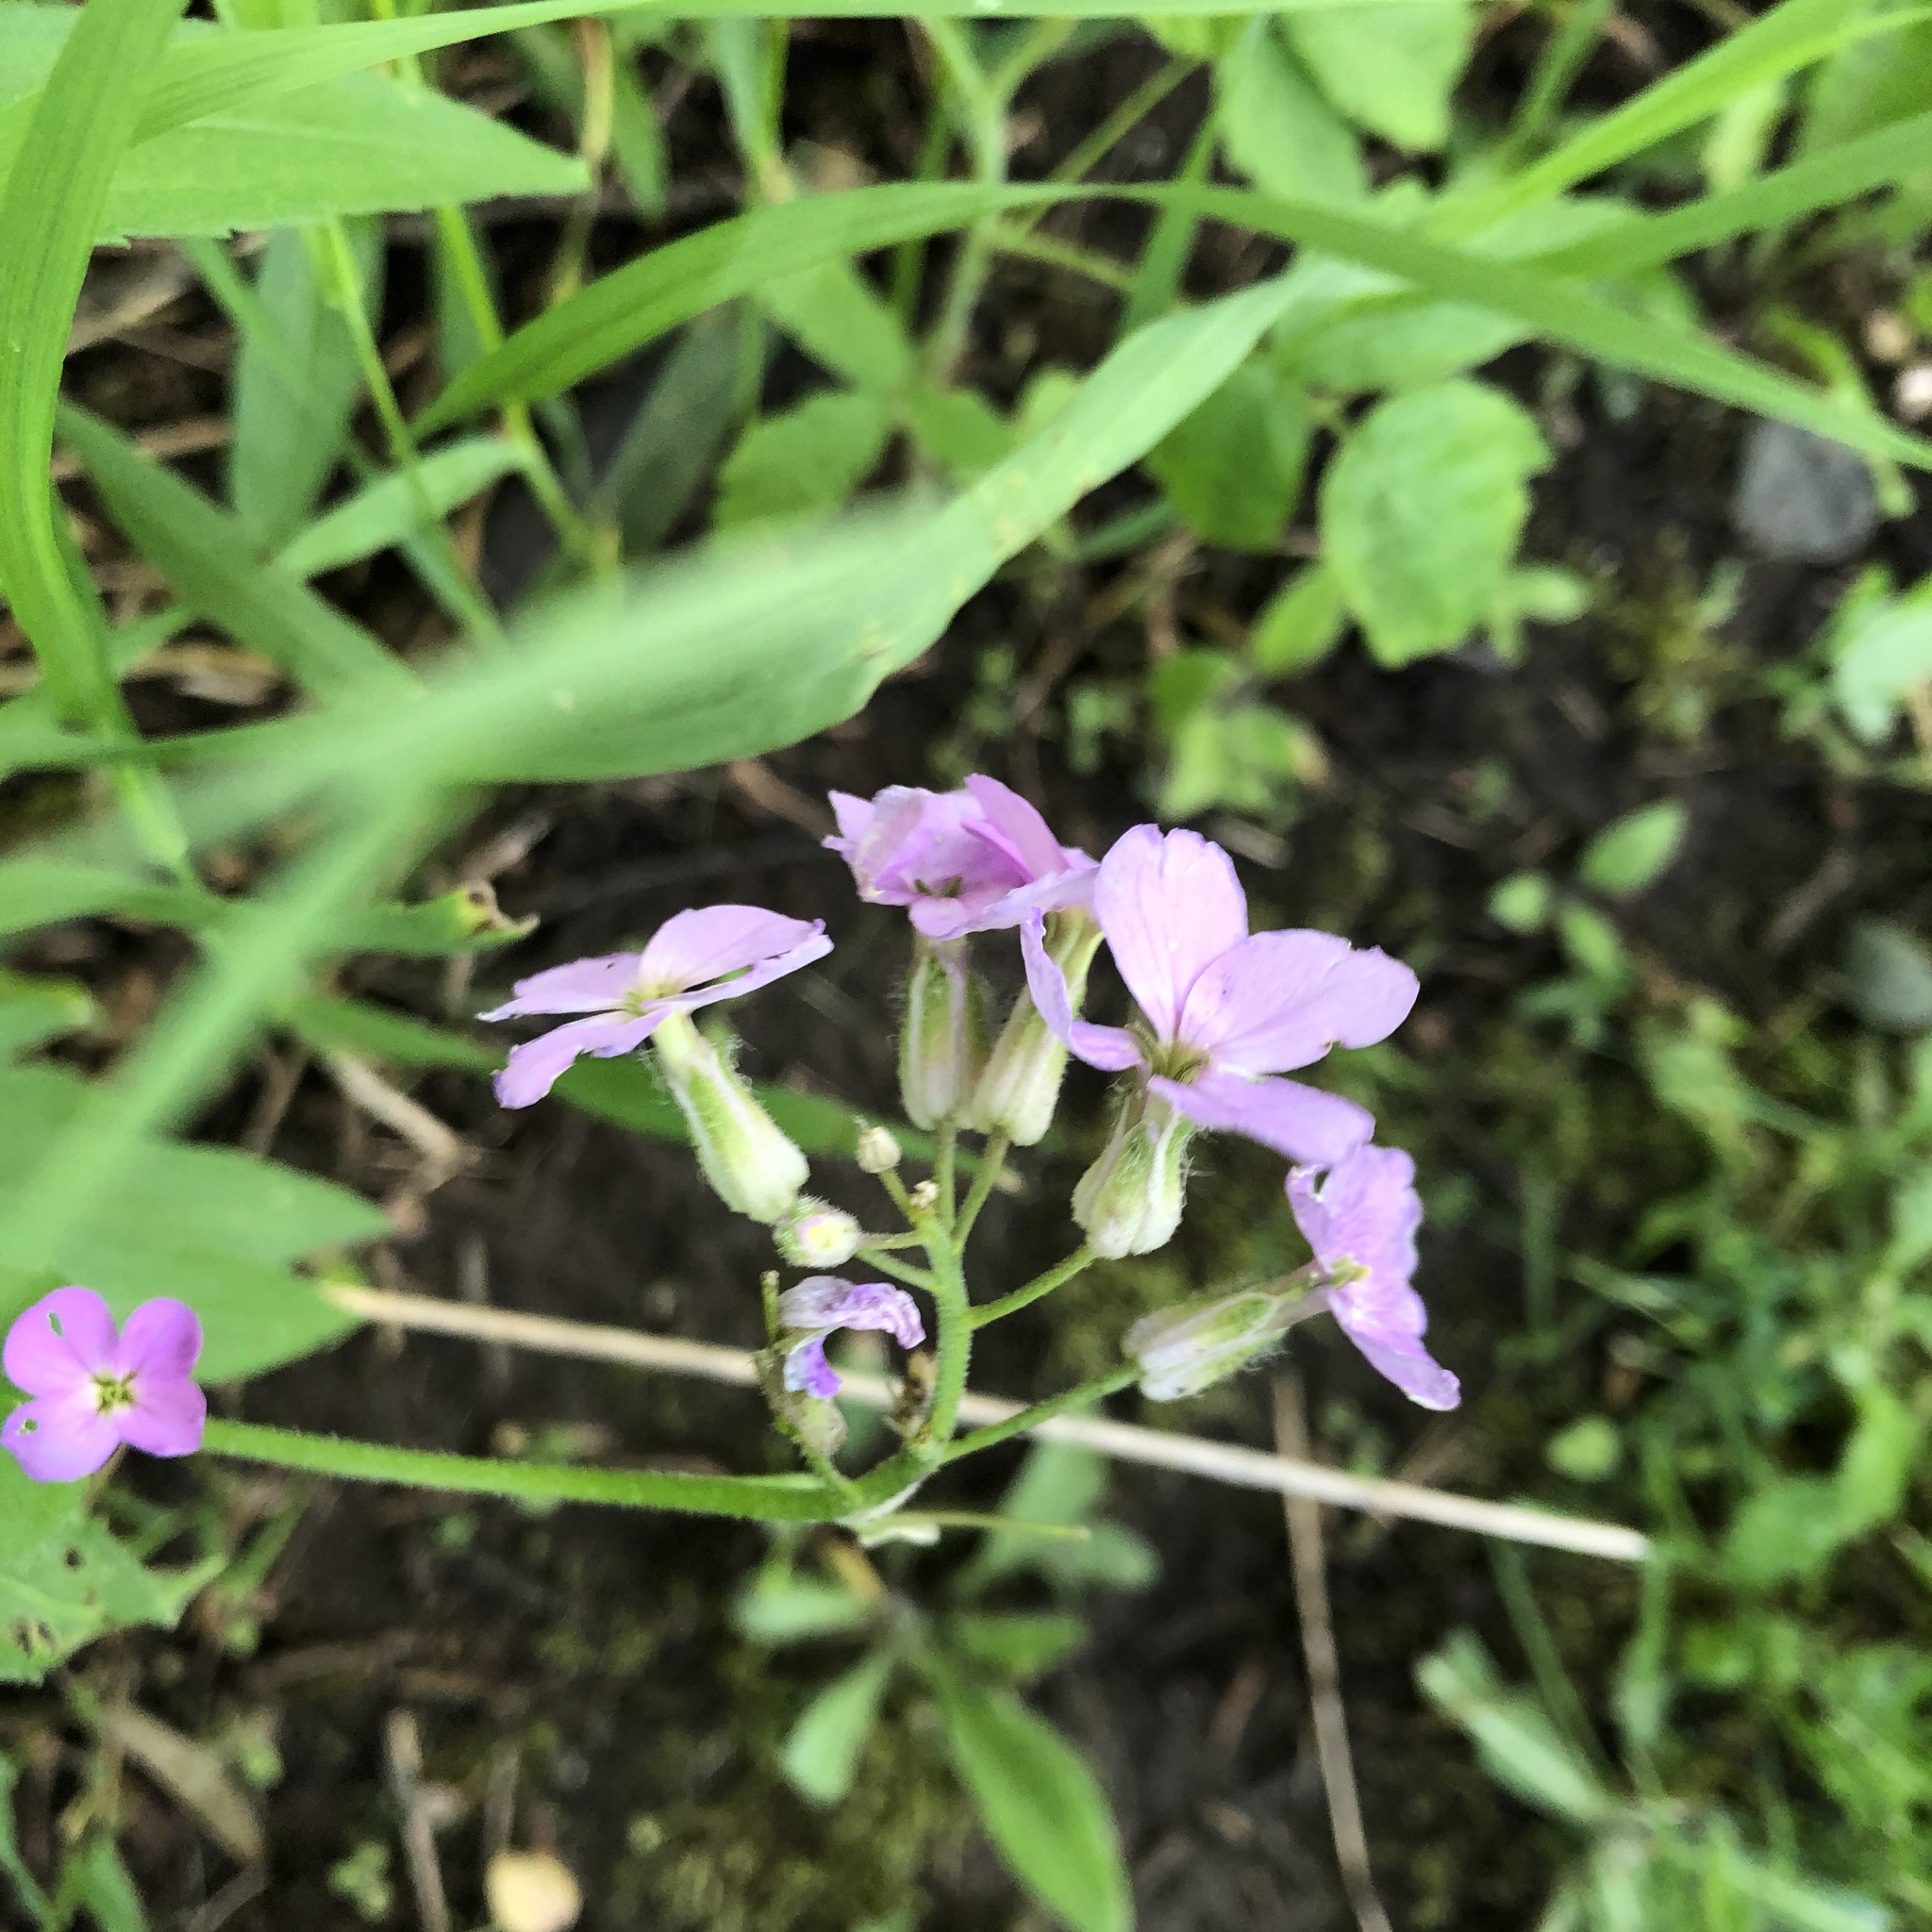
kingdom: Plantae
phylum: Tracheophyta
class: Magnoliopsida
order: Brassicales
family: Brassicaceae
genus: Hesperis
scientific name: Hesperis matronalis
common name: Dame's-violet
